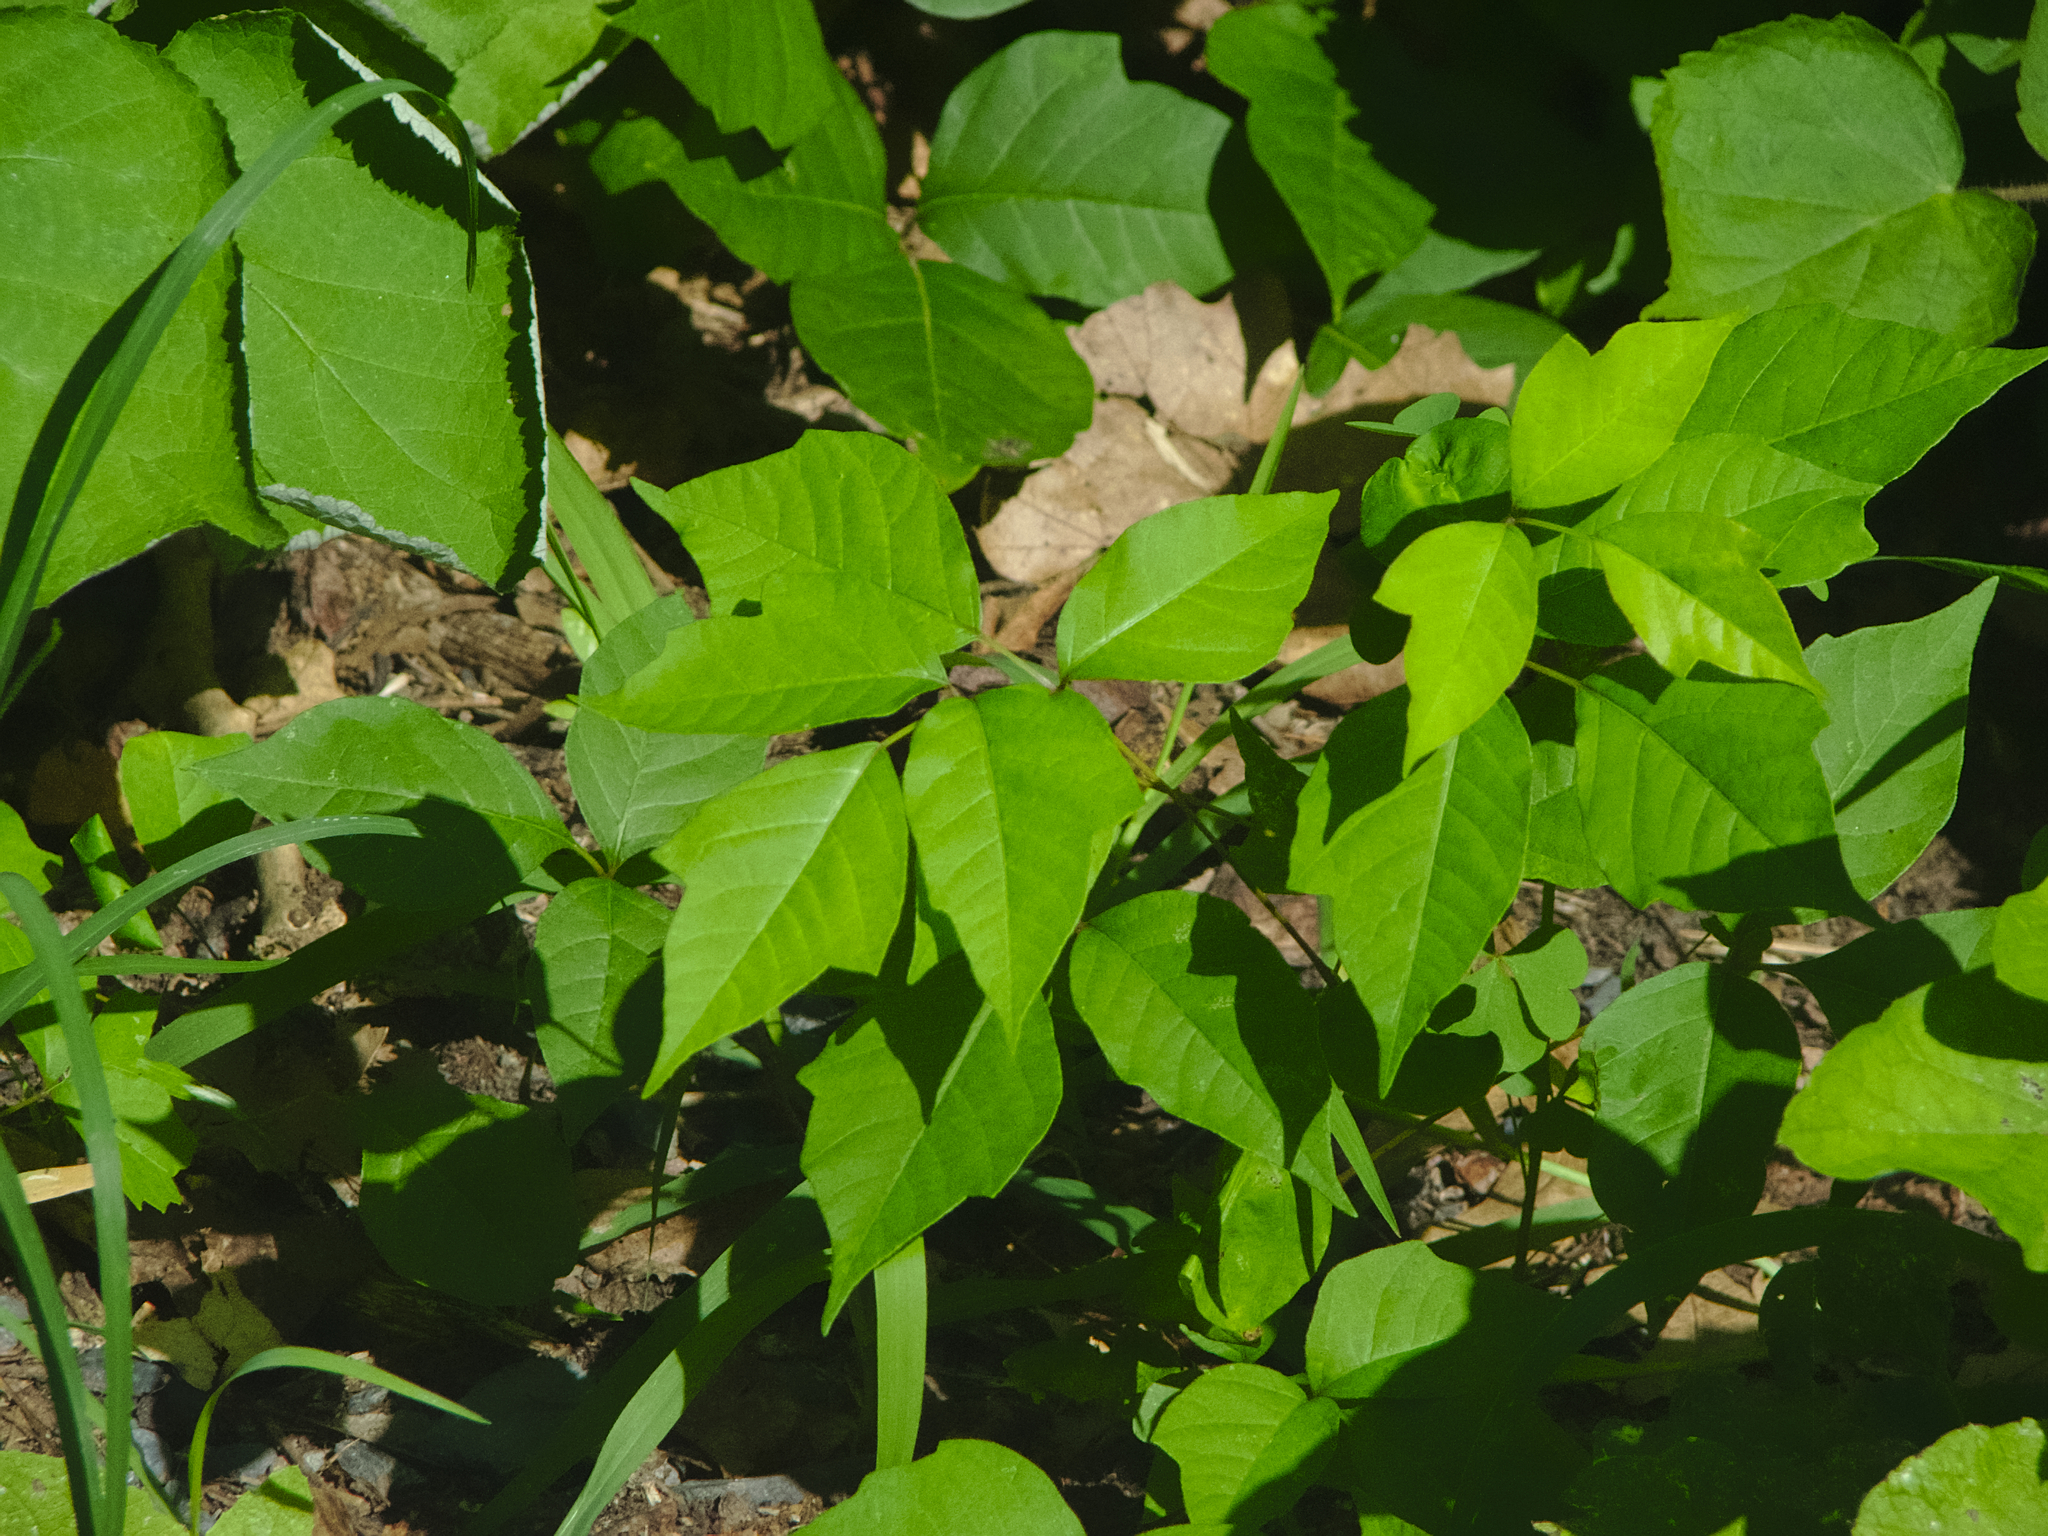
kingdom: Plantae
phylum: Tracheophyta
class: Magnoliopsida
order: Sapindales
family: Anacardiaceae
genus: Toxicodendron
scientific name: Toxicodendron radicans
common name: Poison ivy
